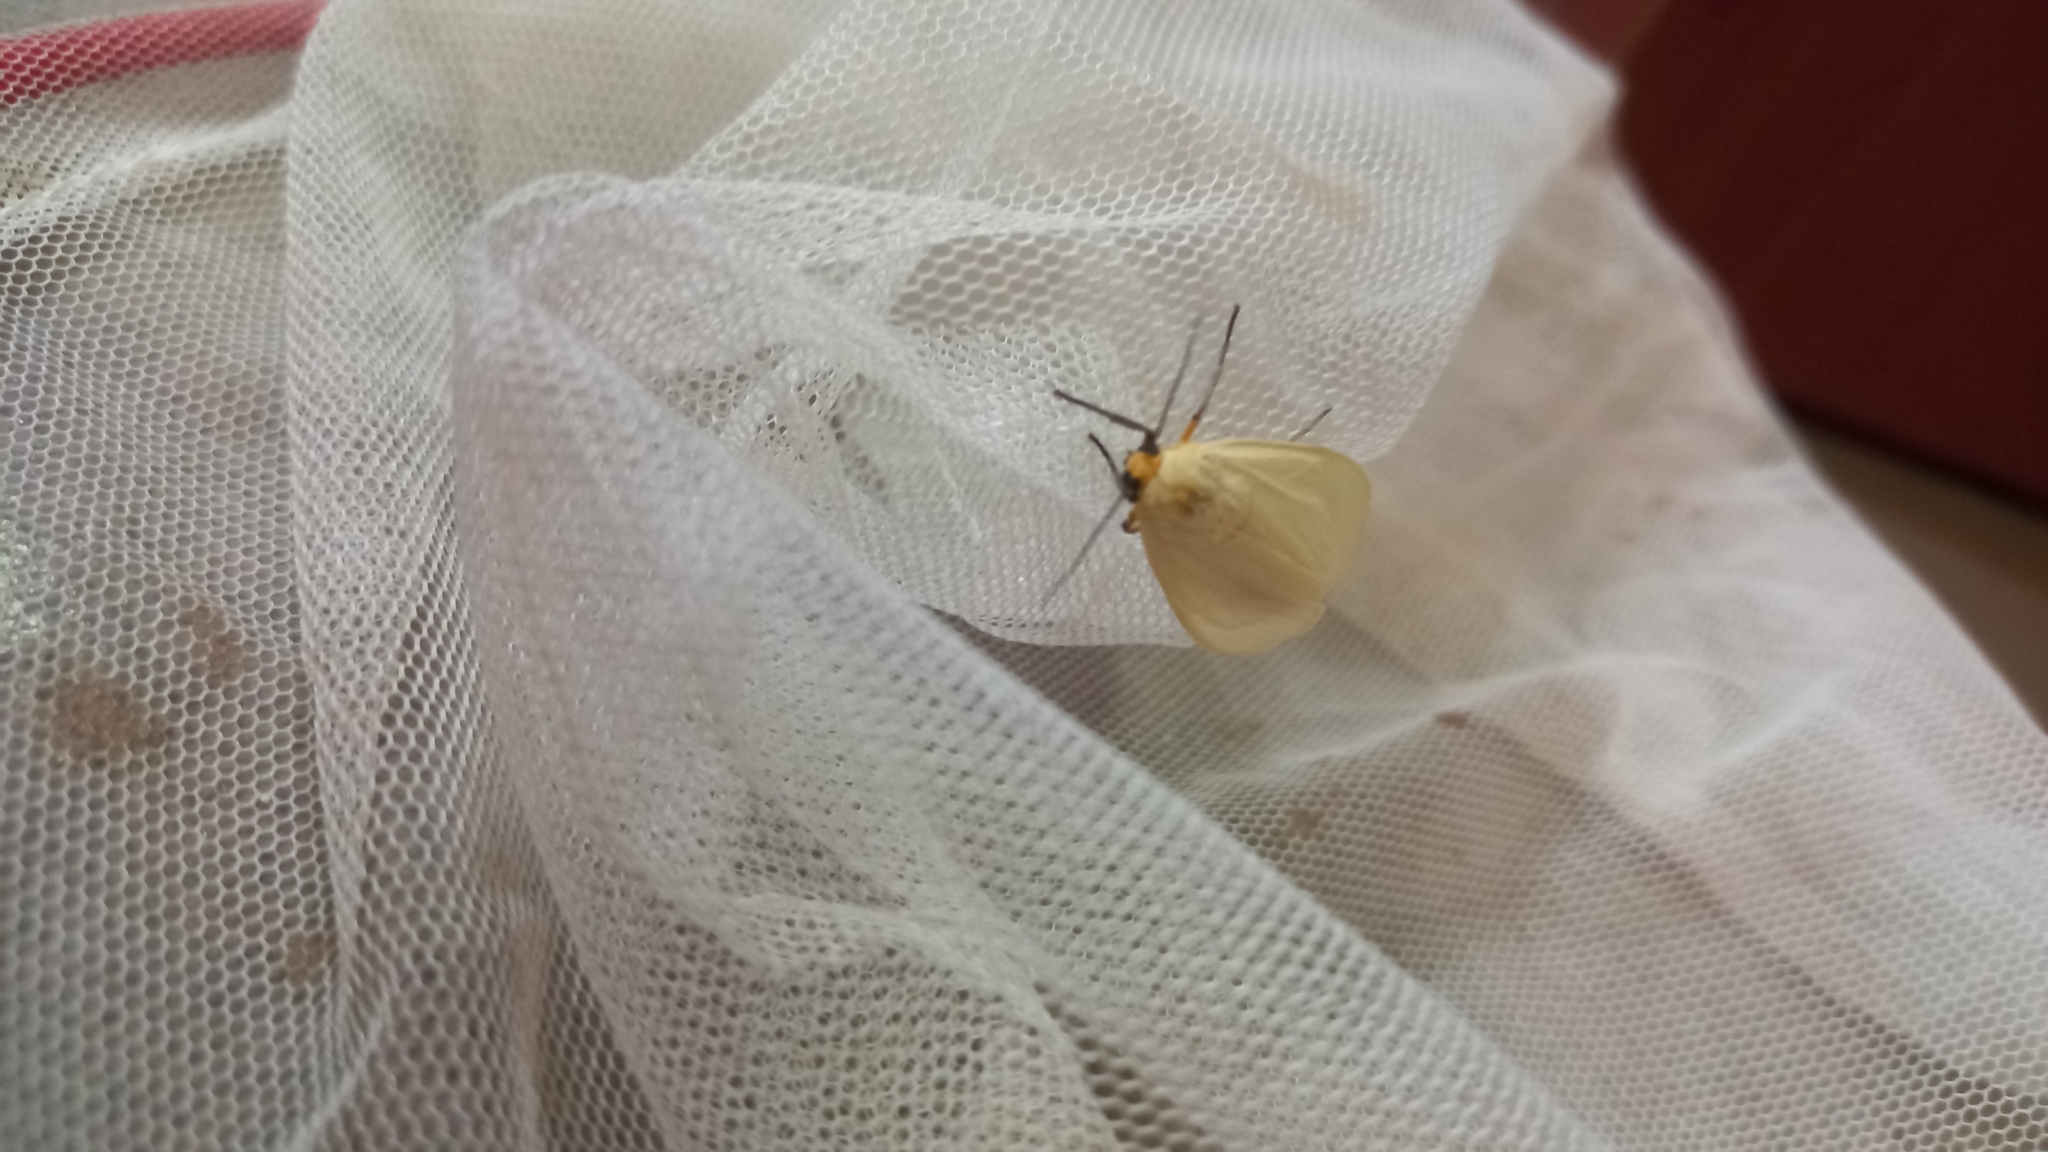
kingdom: Animalia
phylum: Arthropoda
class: Insecta
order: Lepidoptera
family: Erebidae
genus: Pareuchaetes
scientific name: Pareuchaetes pseudoinsulata
